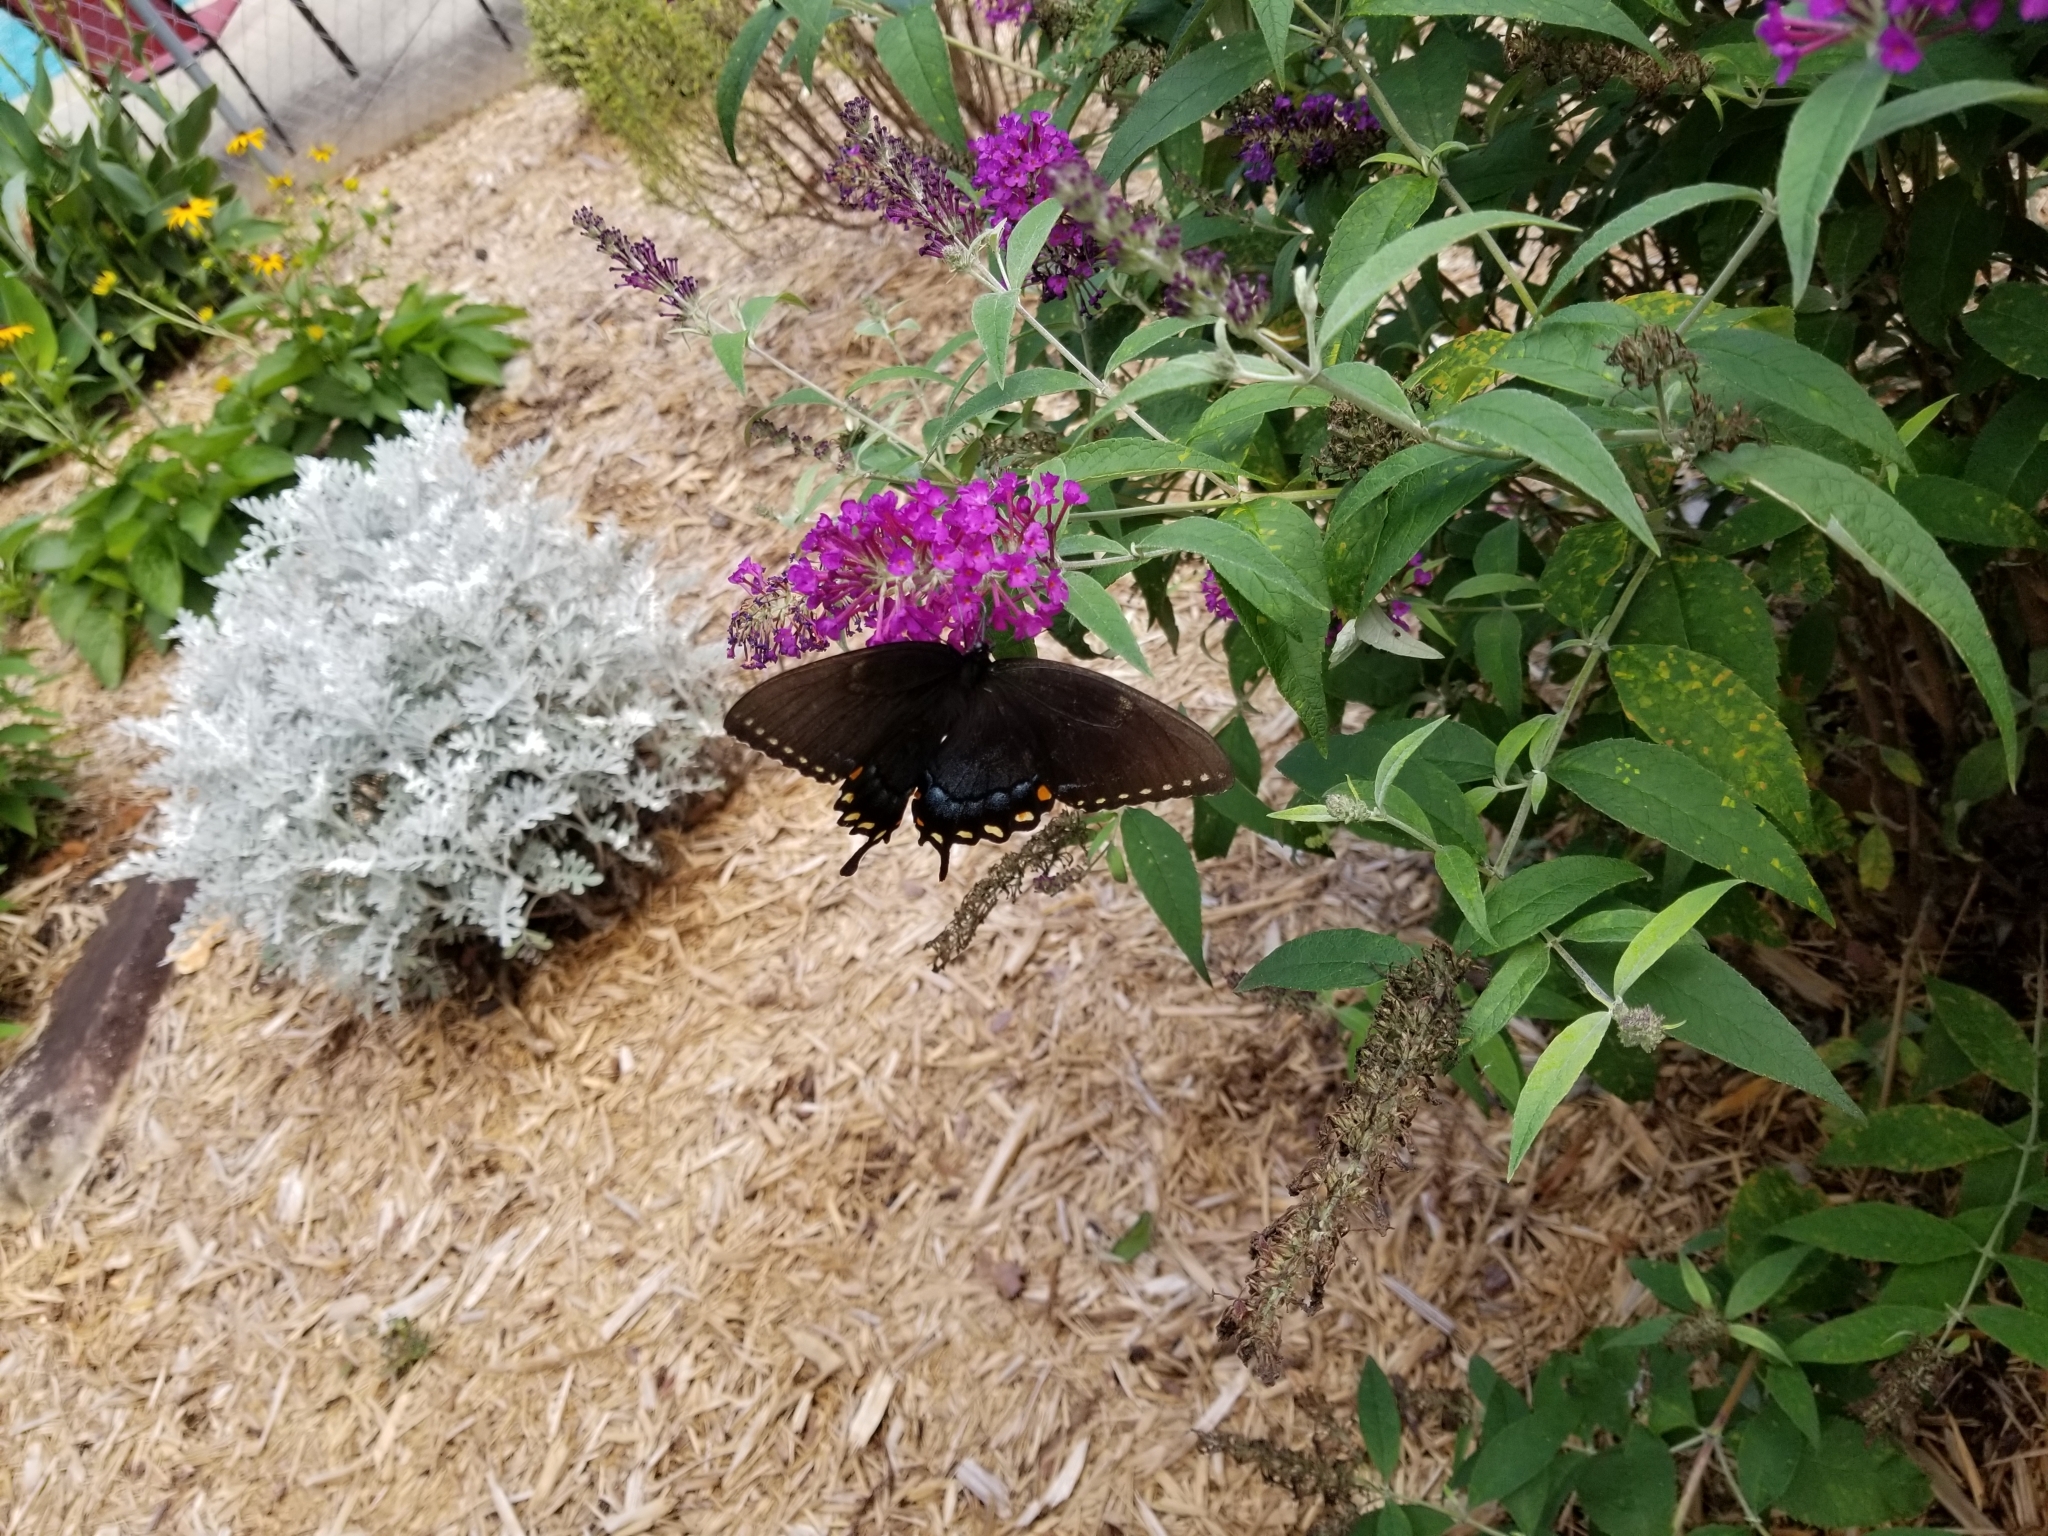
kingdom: Animalia
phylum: Arthropoda
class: Insecta
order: Lepidoptera
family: Papilionidae
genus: Papilio
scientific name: Papilio glaucus
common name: Tiger swallowtail
